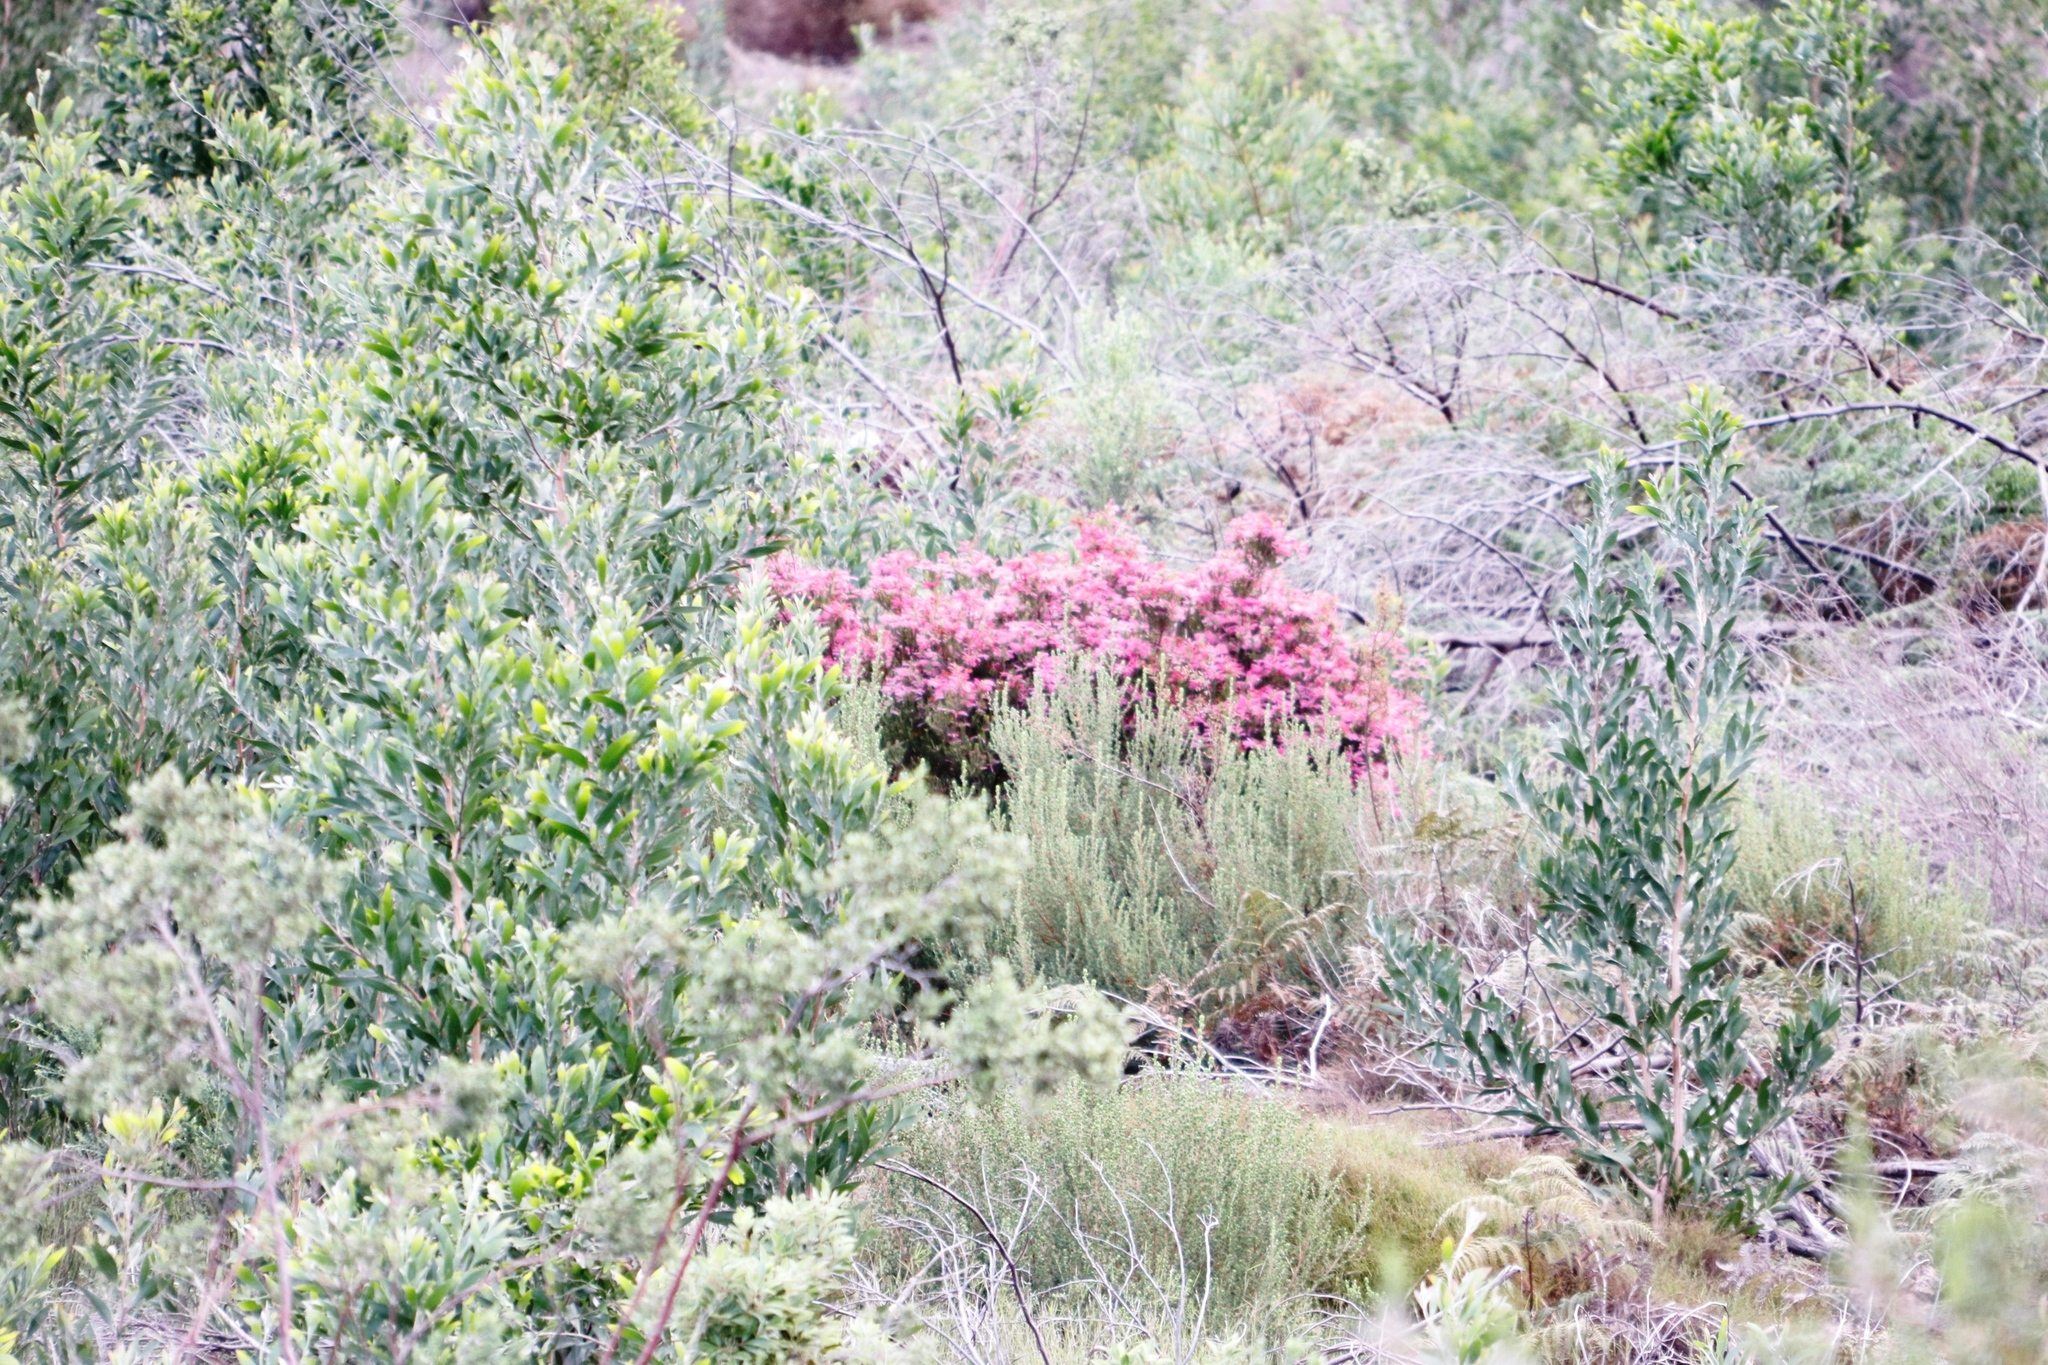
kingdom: Plantae
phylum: Tracheophyta
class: Magnoliopsida
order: Ericales
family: Ericaceae
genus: Erica
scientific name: Erica abietina
